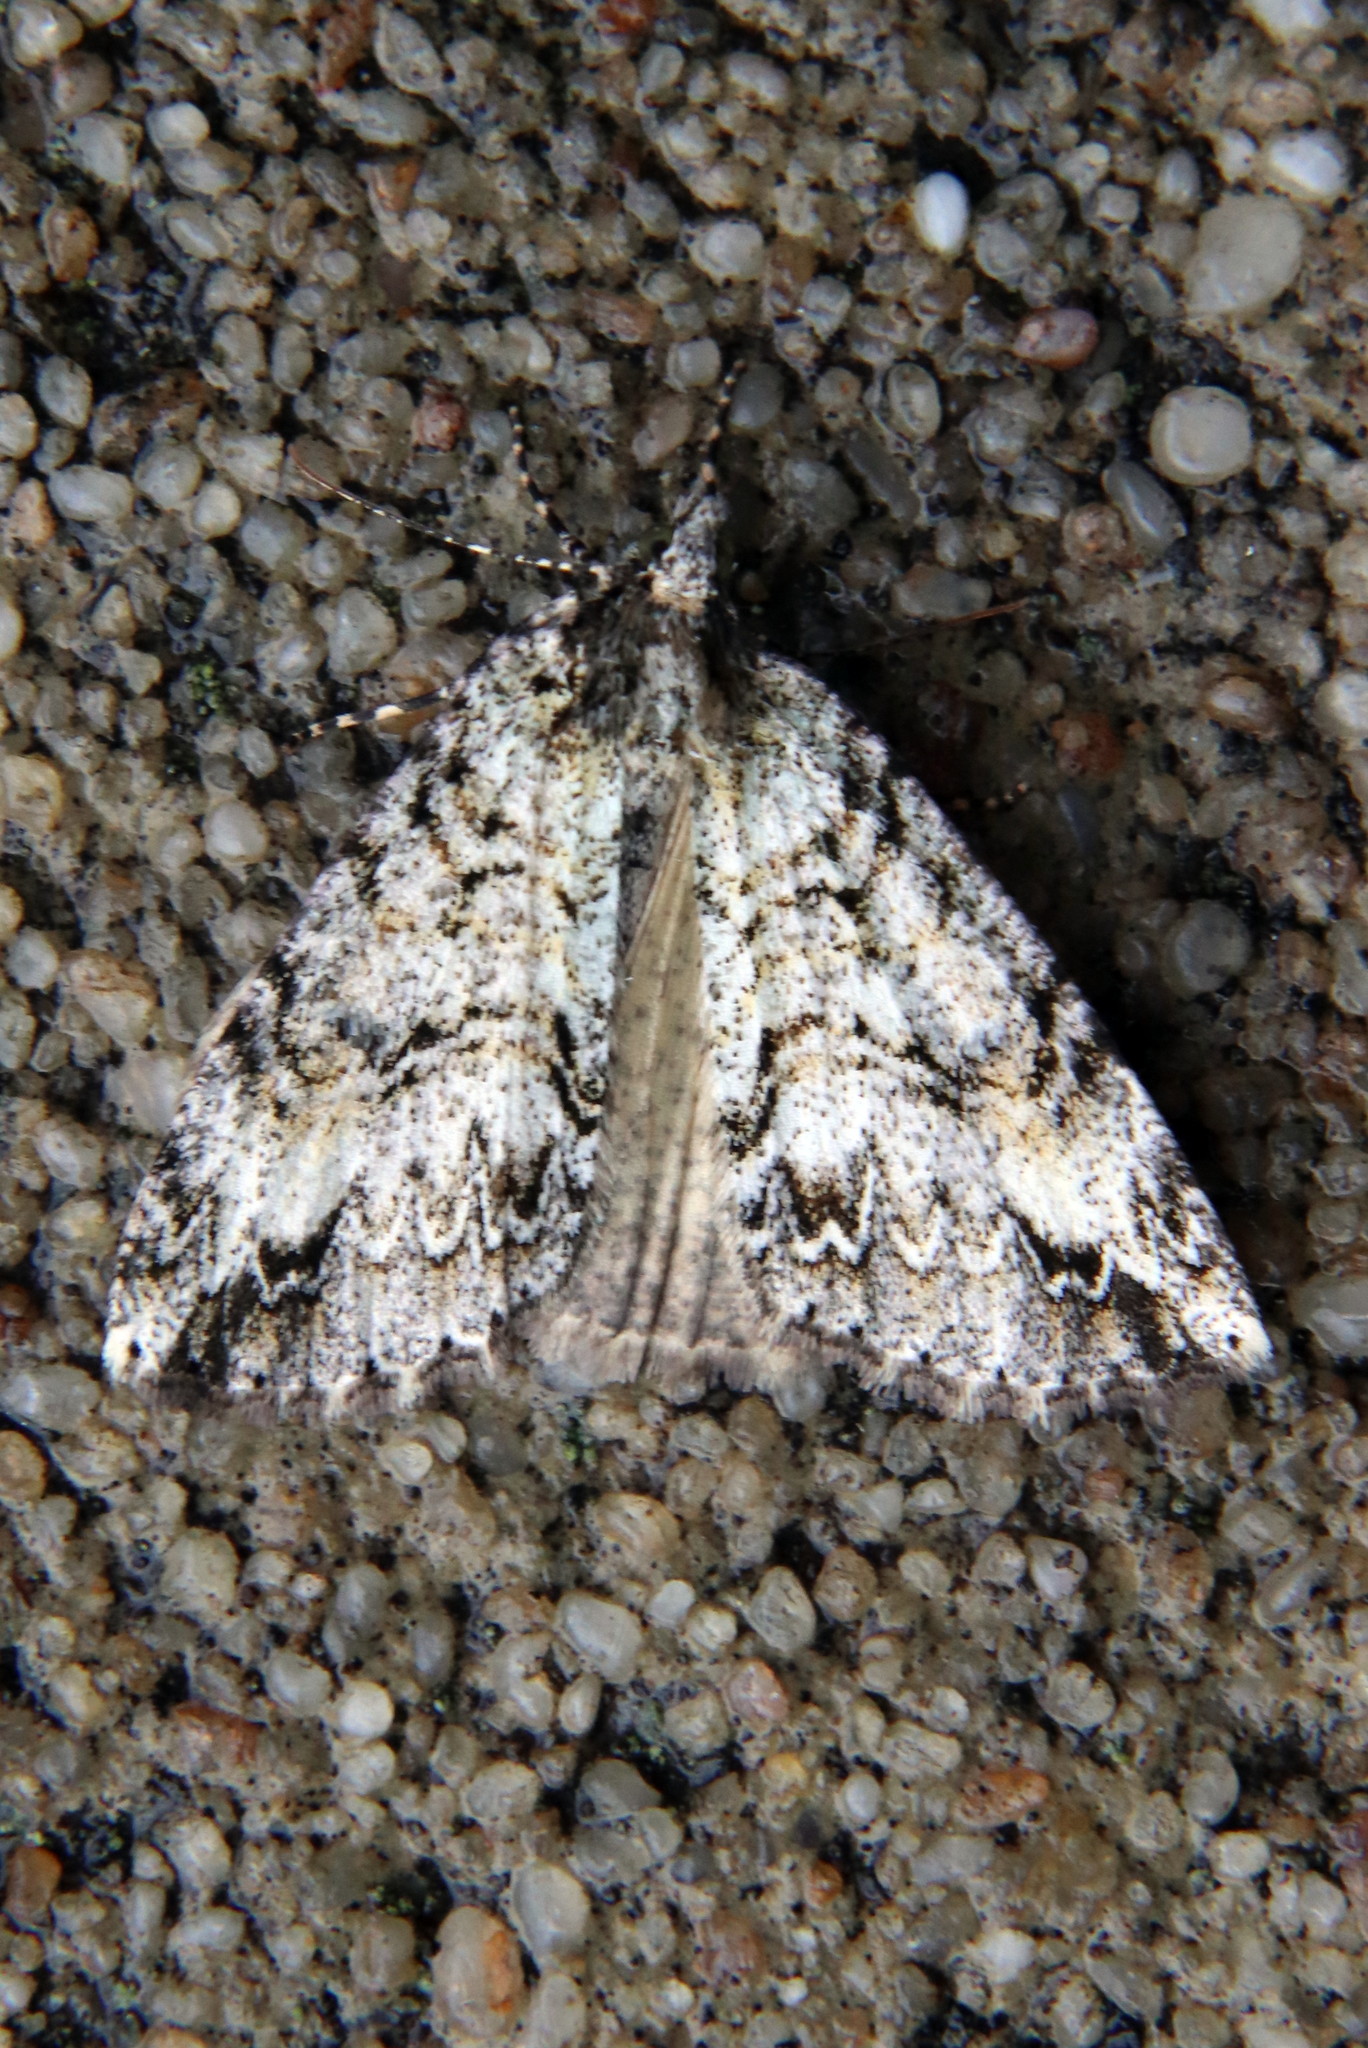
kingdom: Animalia
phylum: Arthropoda
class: Insecta
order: Lepidoptera
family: Geometridae
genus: Pseudocoremia
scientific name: Pseudocoremia suavis
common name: Common forest looper
